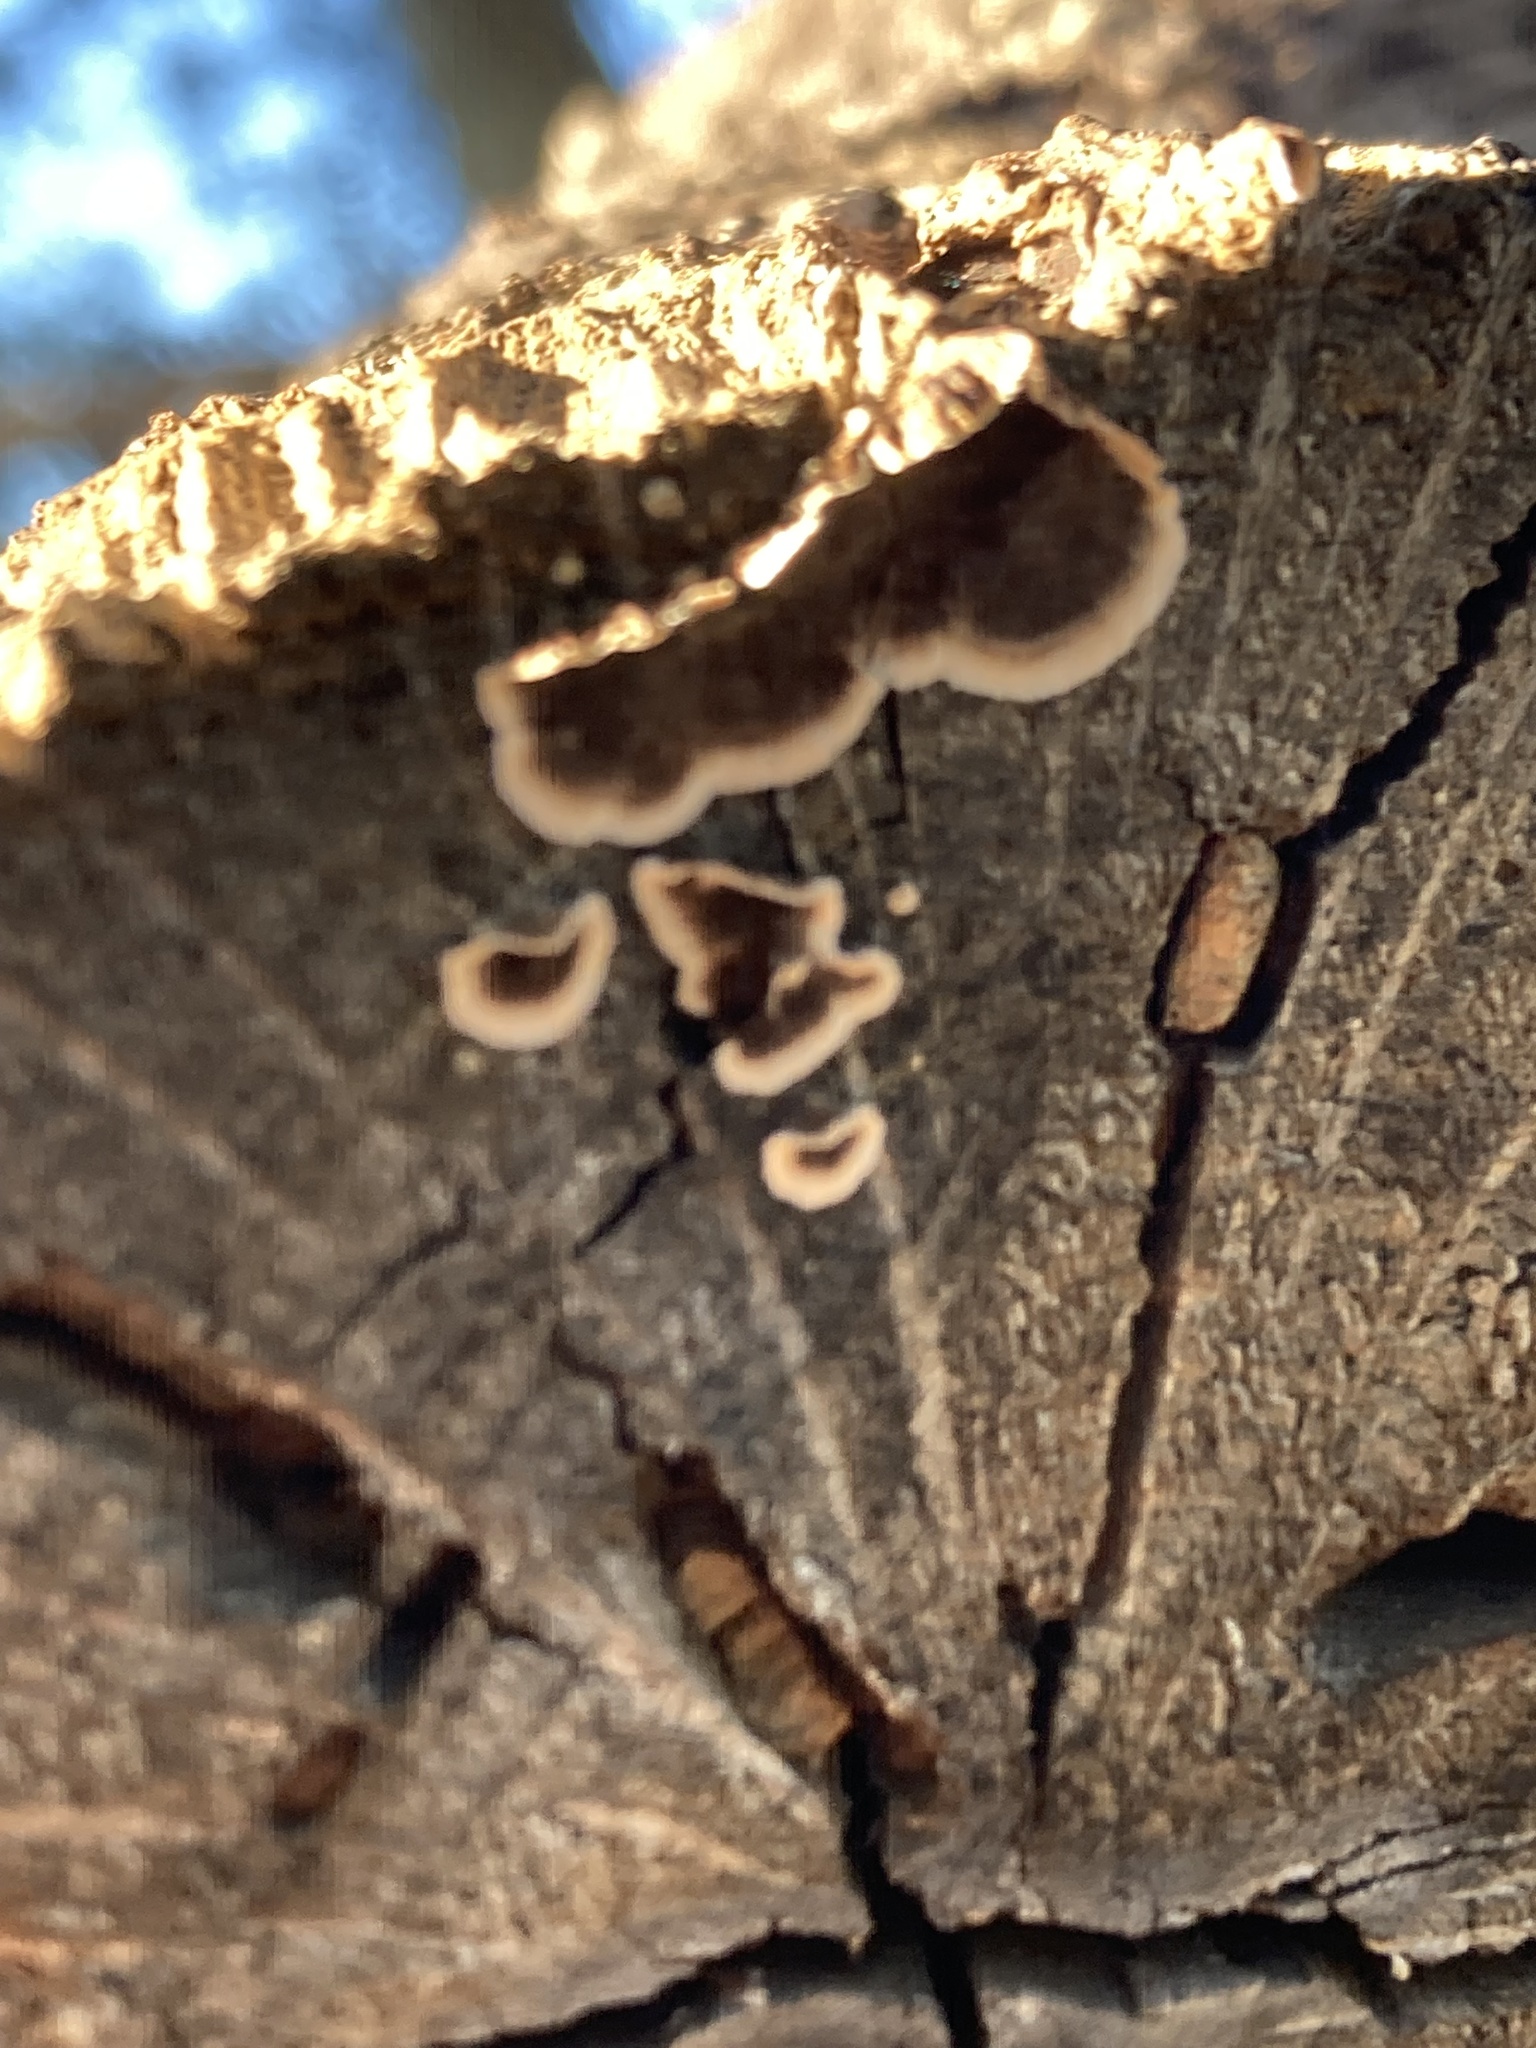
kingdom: Fungi
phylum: Basidiomycota
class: Agaricomycetes
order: Russulales
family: Peniophoraceae
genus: Peniophora
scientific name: Peniophora albobadia
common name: Giraffe spots
